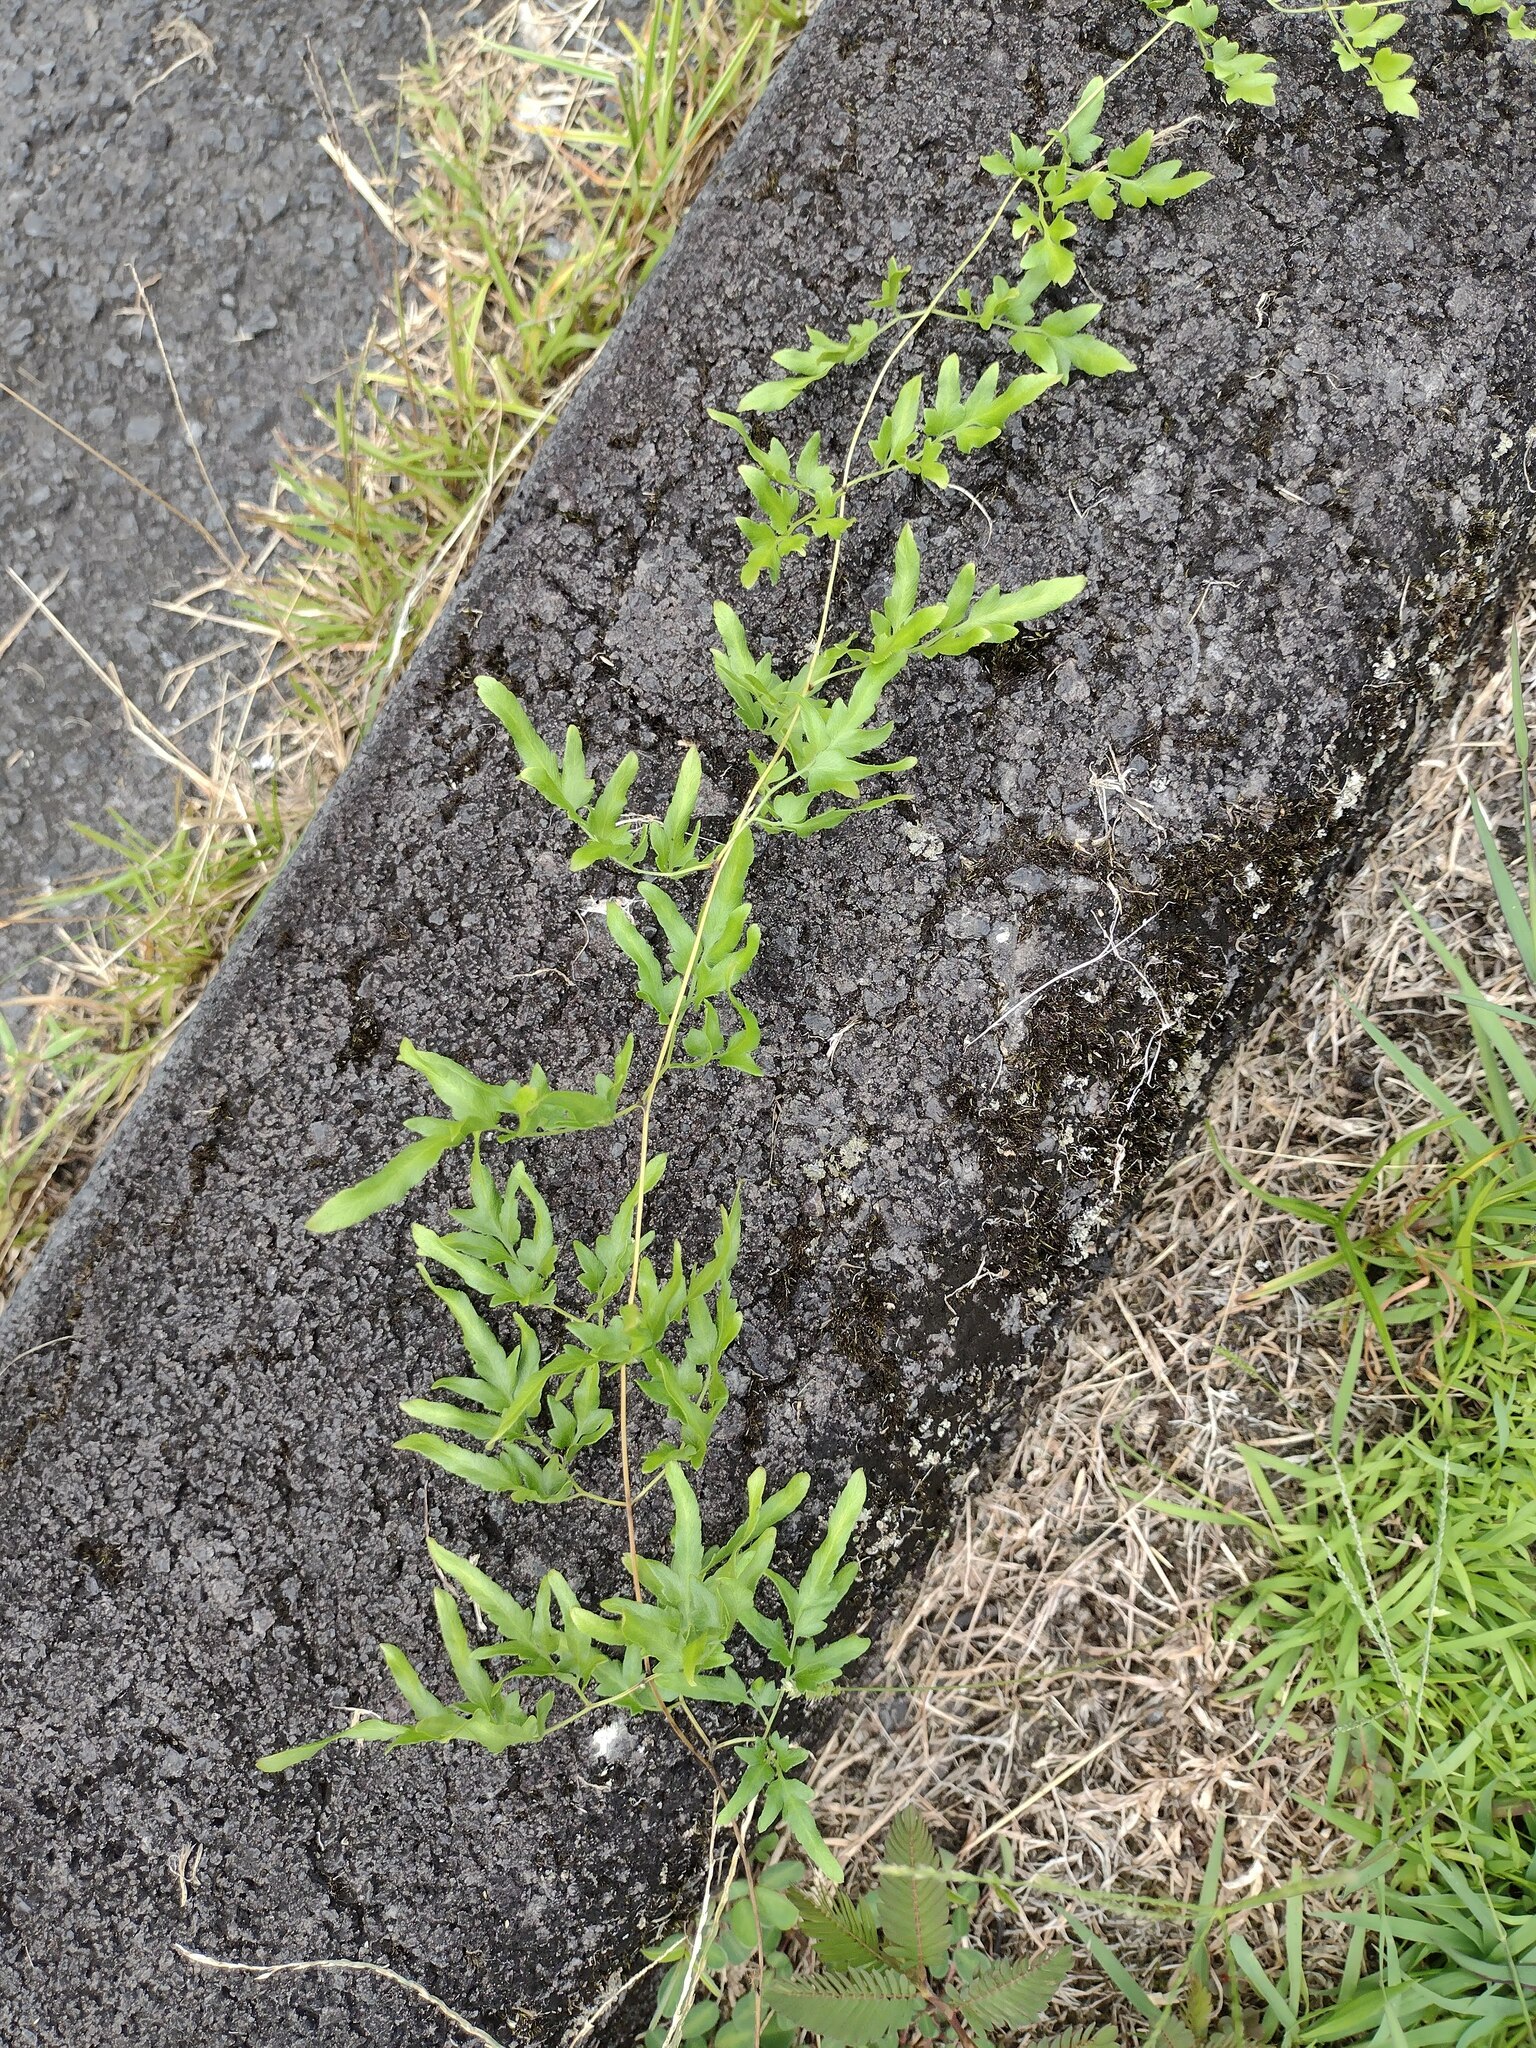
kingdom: Plantae
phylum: Tracheophyta
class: Polypodiopsida
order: Schizaeales
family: Lygodiaceae
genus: Lygodium
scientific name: Lygodium japonicum
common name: Japanese climbing fern
